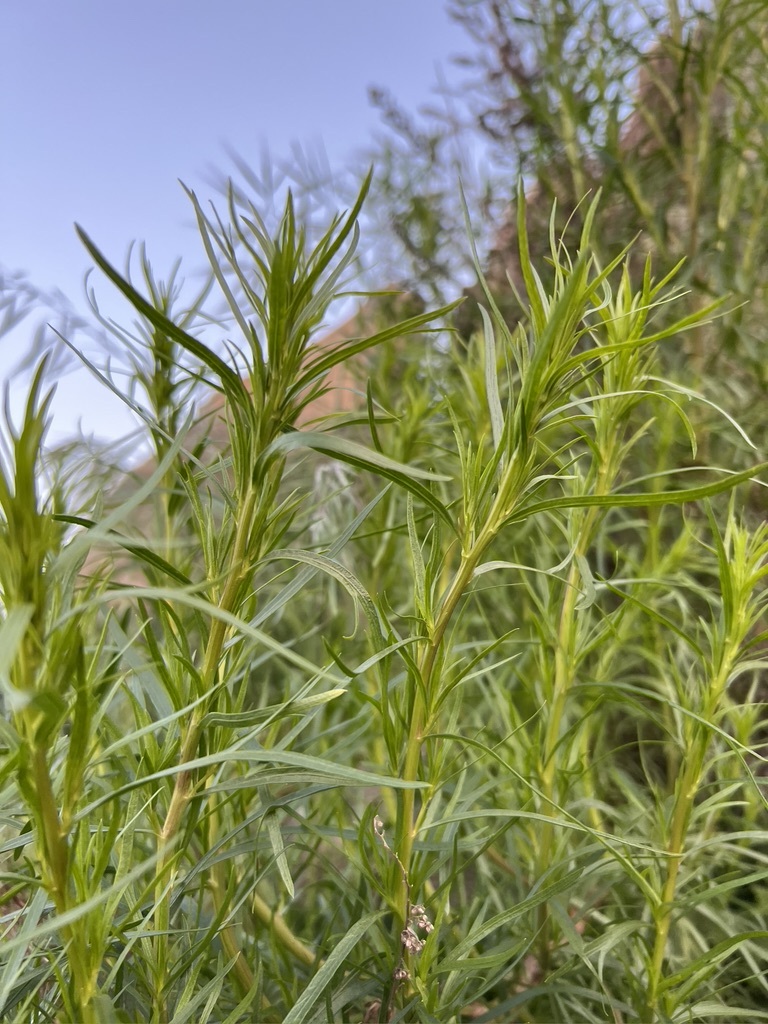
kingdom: Plantae
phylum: Tracheophyta
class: Magnoliopsida
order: Asterales
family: Asteraceae
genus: Artemisia
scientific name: Artemisia dracunculus
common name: Tarragon
